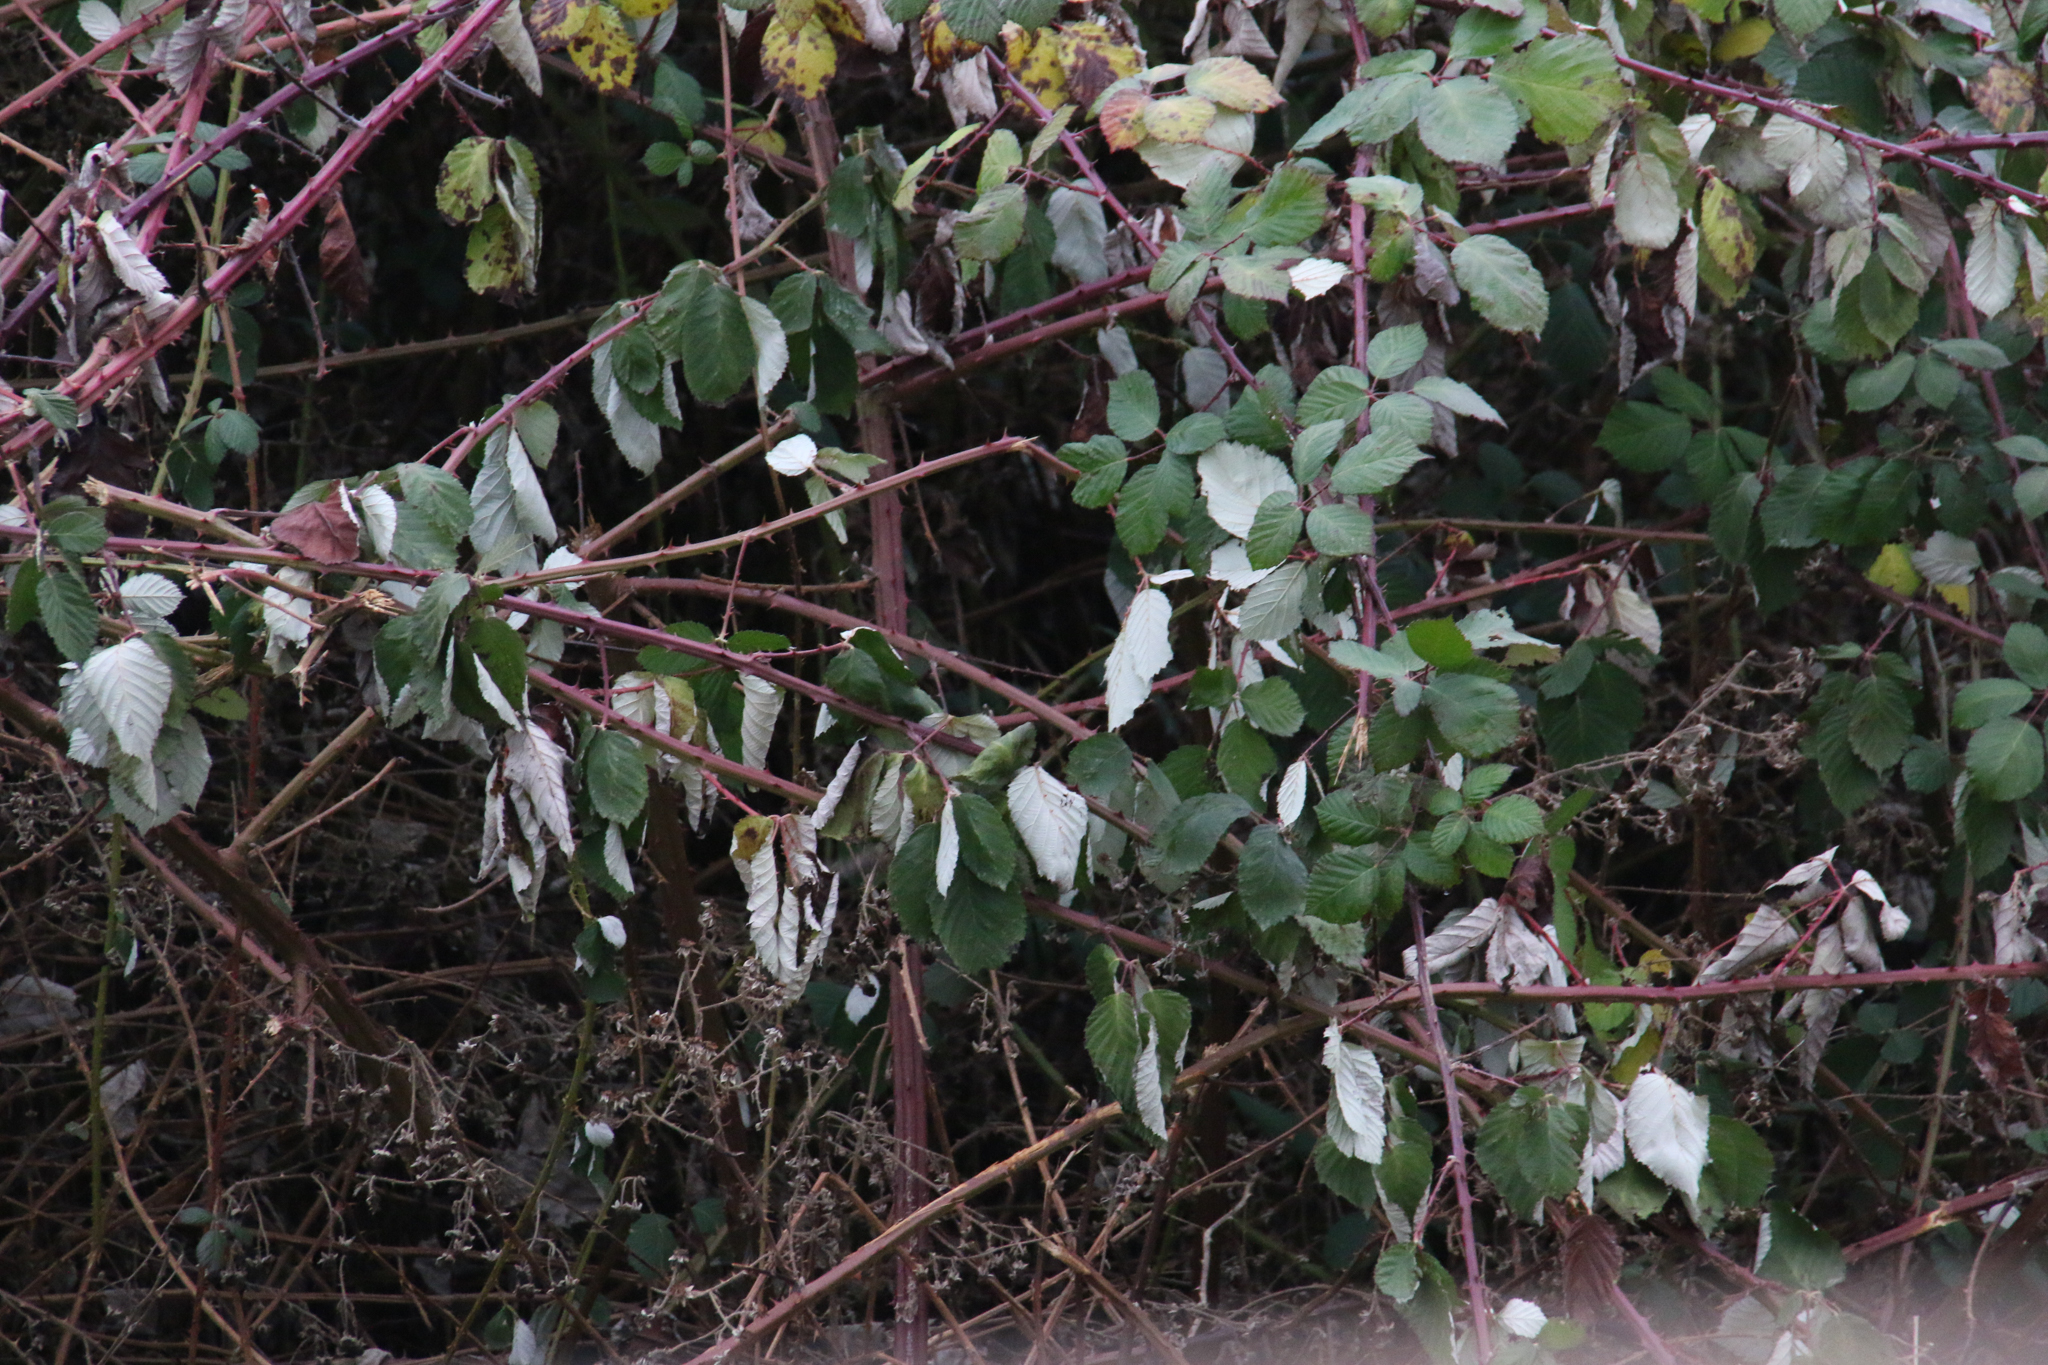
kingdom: Plantae
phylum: Tracheophyta
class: Magnoliopsida
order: Rosales
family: Rosaceae
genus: Rubus
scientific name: Rubus bifrons
